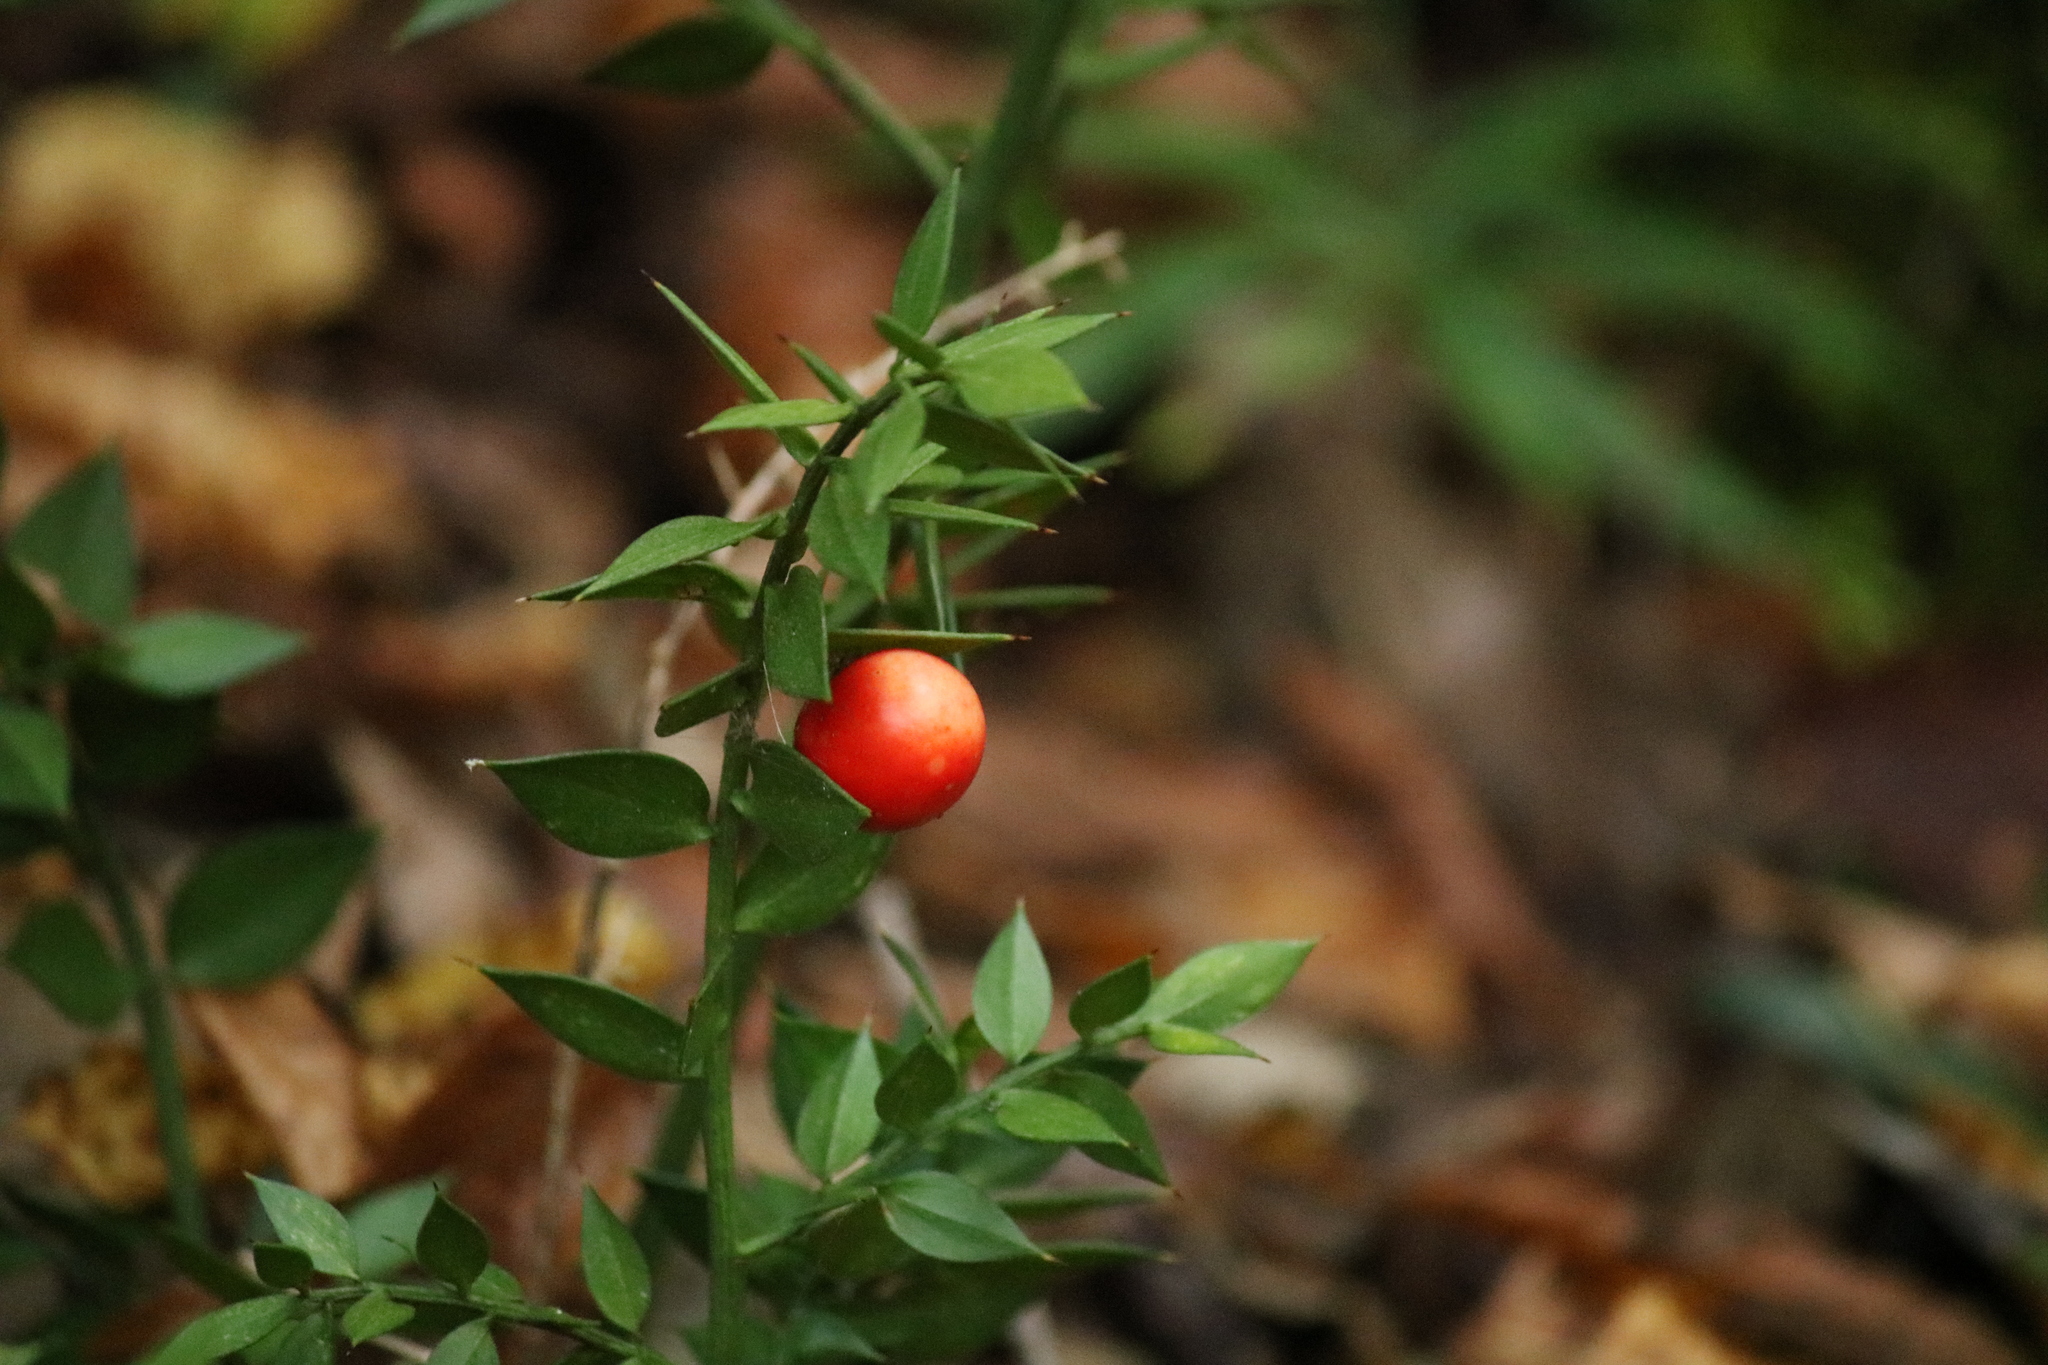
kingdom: Plantae
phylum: Tracheophyta
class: Liliopsida
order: Asparagales
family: Asparagaceae
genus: Ruscus
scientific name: Ruscus aculeatus
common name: Butcher's-broom
